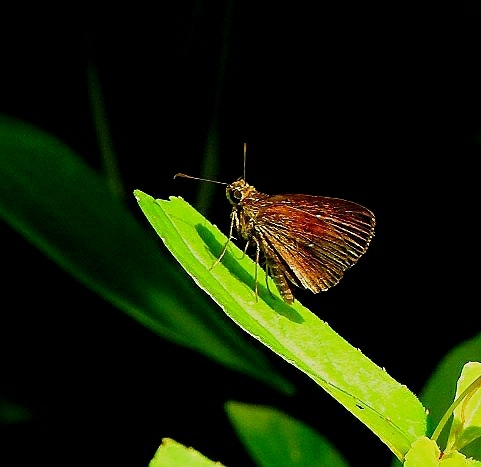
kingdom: Animalia
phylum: Arthropoda
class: Insecta
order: Lepidoptera
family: Hesperiidae
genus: Iambrix
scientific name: Iambrix salsala
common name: Chestnut bob
